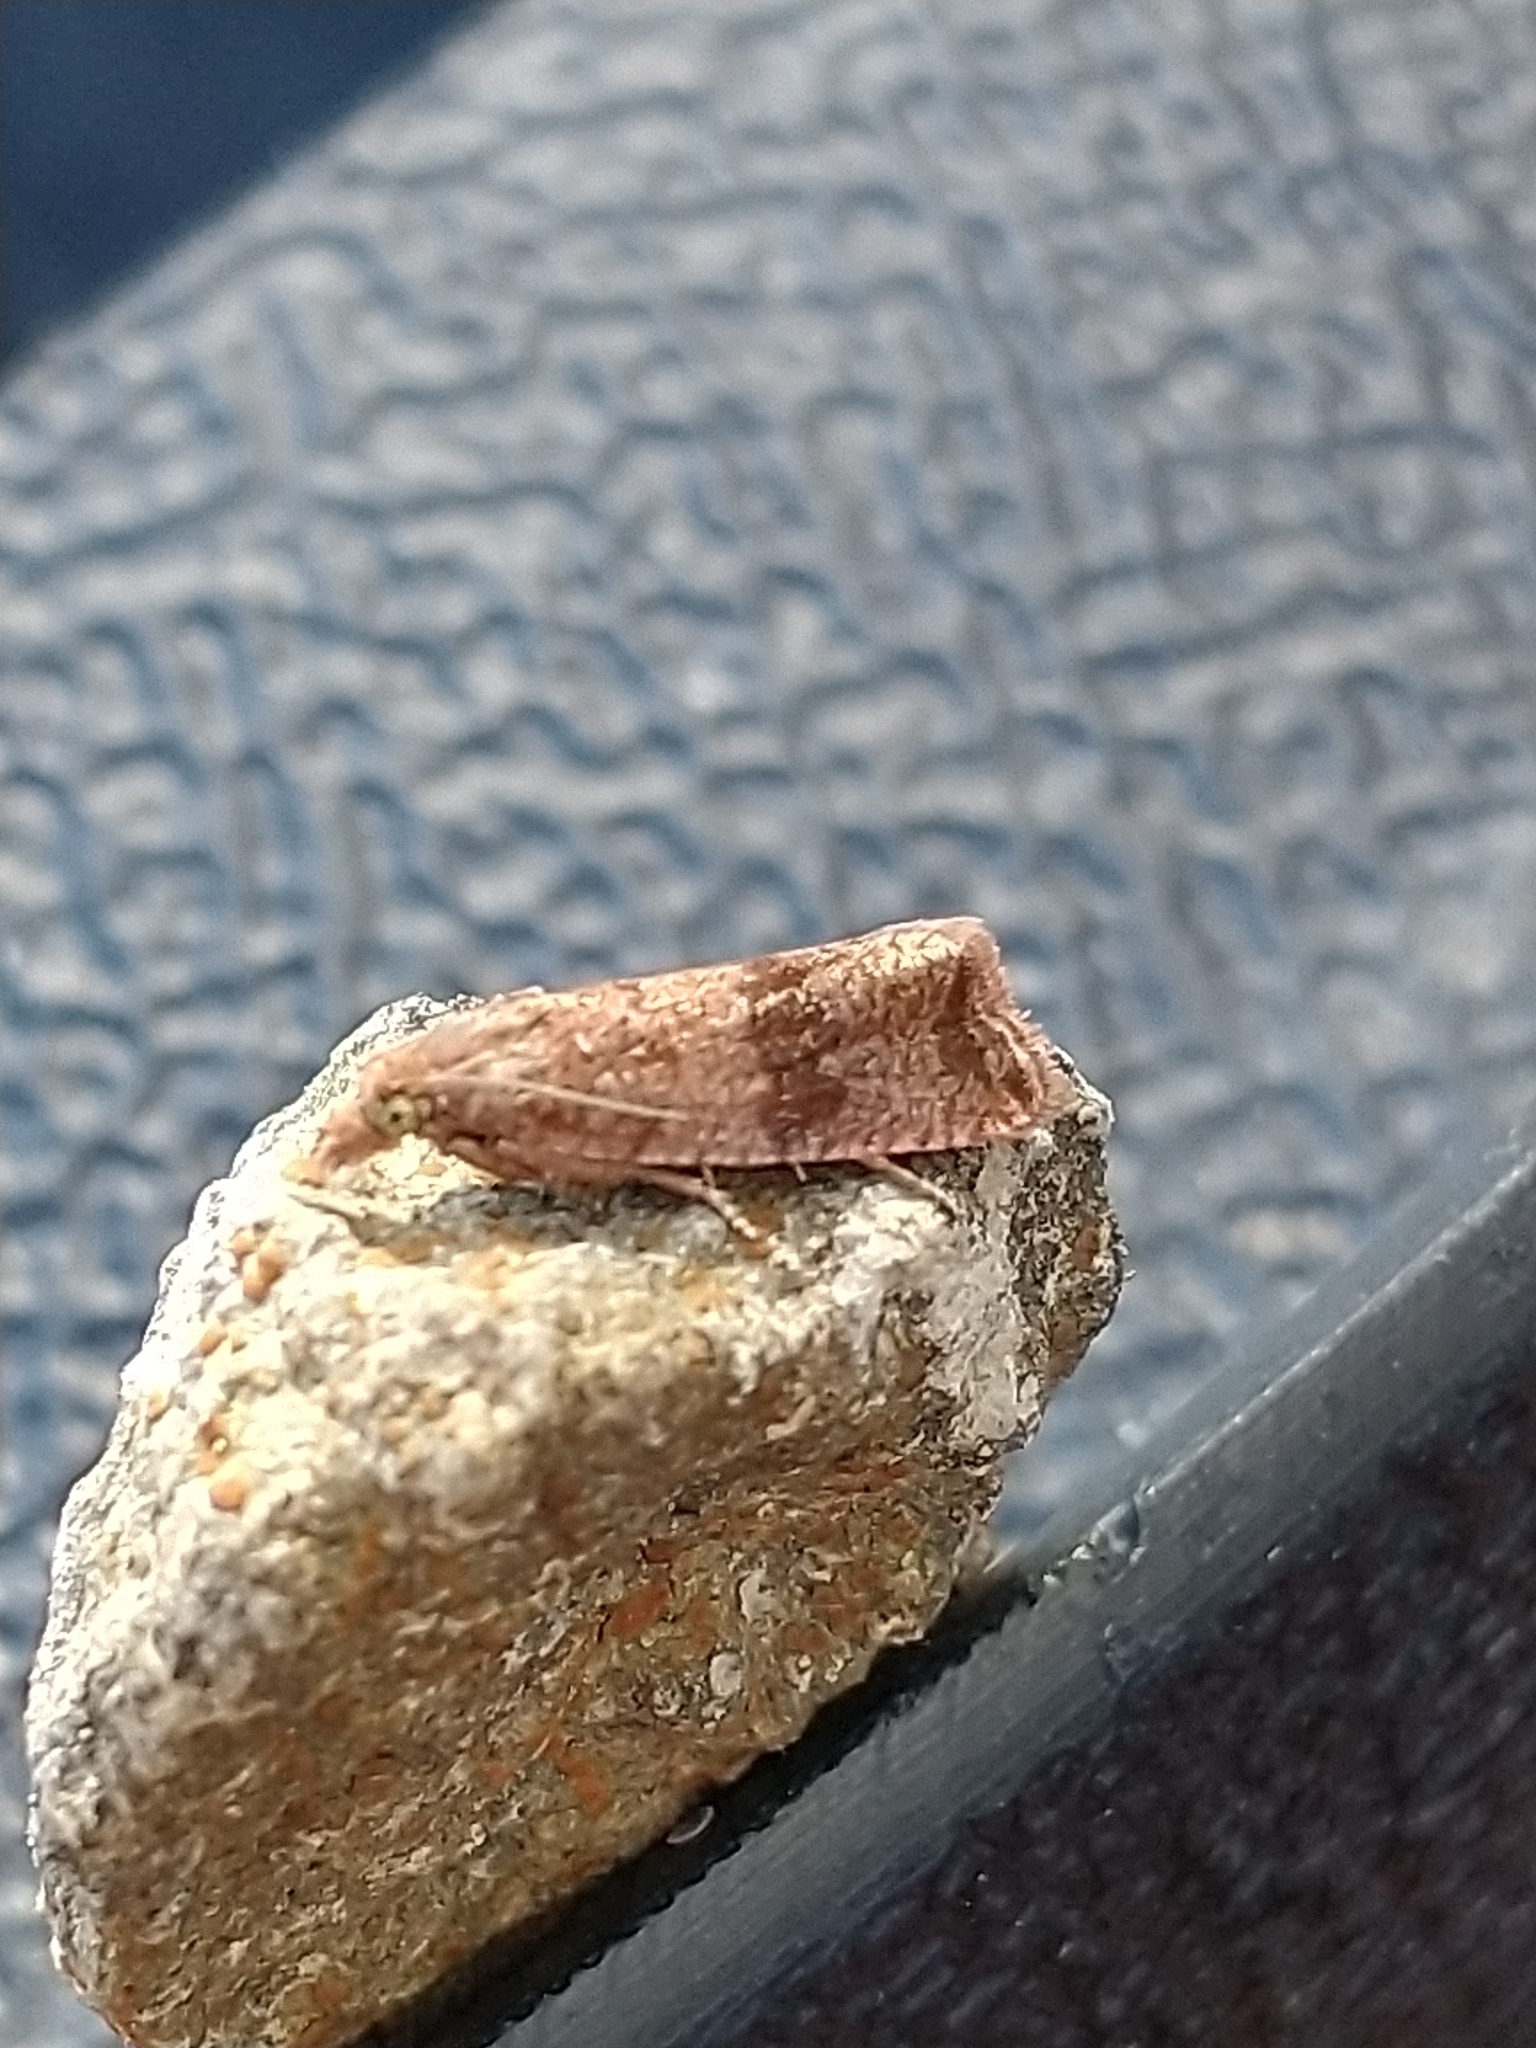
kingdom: Animalia
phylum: Arthropoda
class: Insecta
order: Lepidoptera
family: Tortricidae
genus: Celypha
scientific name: Celypha striana
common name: Barred marble
